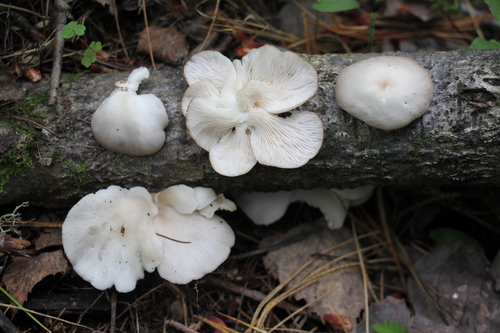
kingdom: Fungi
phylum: Basidiomycota
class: Agaricomycetes
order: Agaricales
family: Pleurotaceae
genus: Pleurotus
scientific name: Pleurotus pulmonarius
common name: Pale oyster
